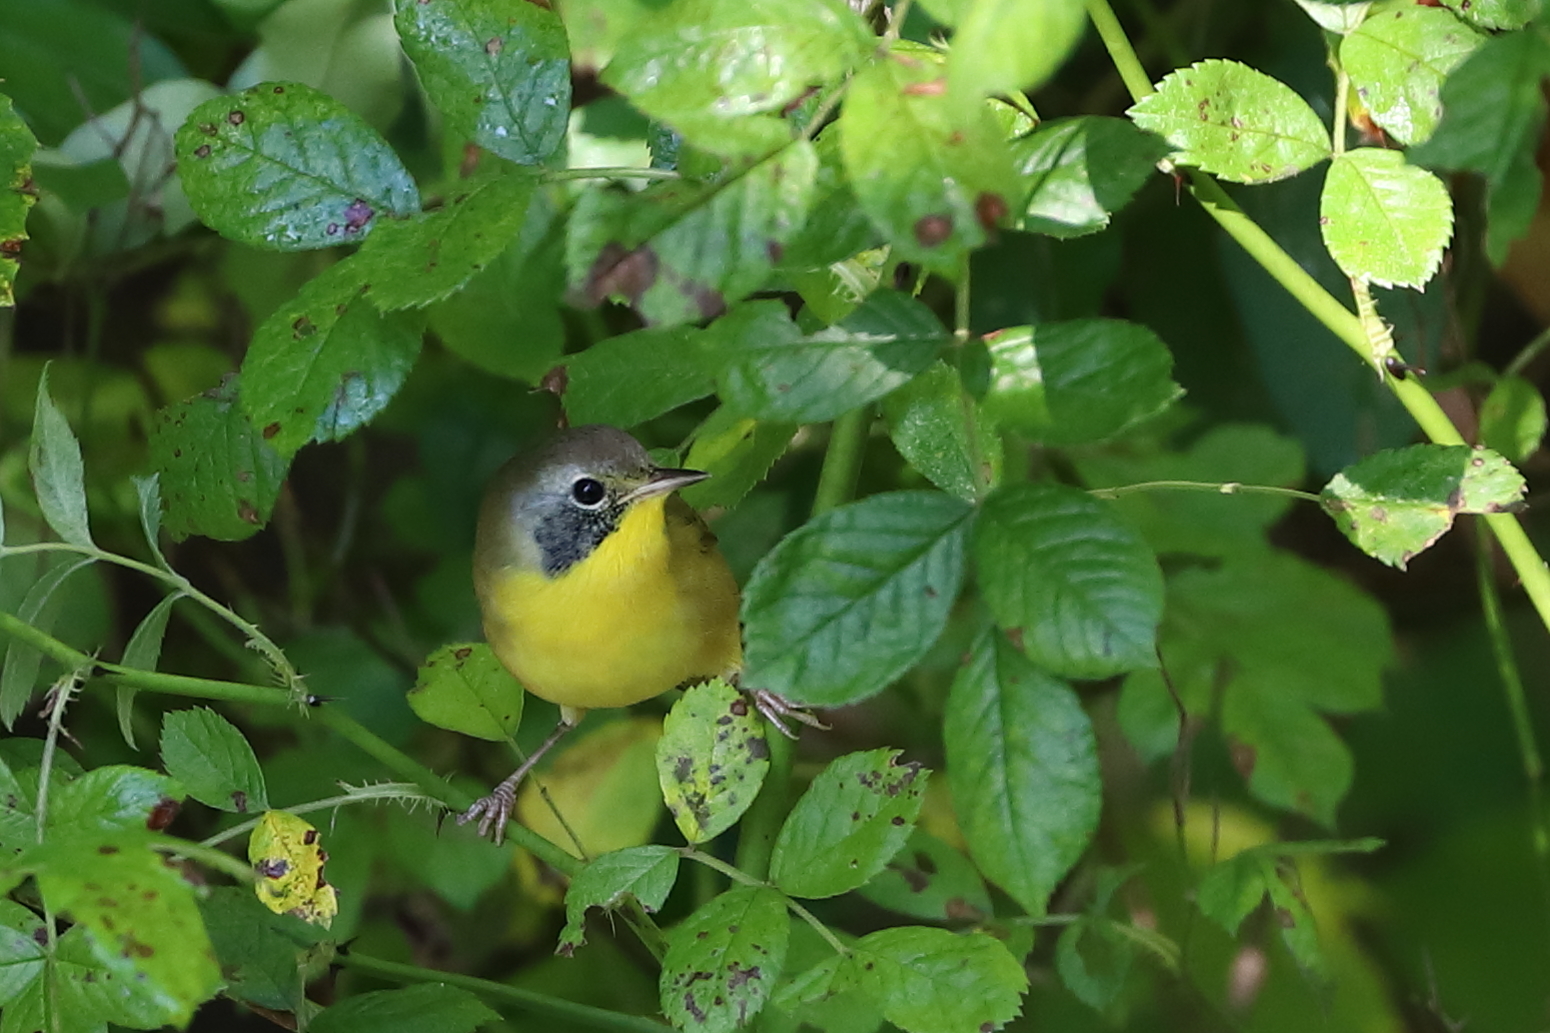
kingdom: Animalia
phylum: Chordata
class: Aves
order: Passeriformes
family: Parulidae
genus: Geothlypis
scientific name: Geothlypis trichas
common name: Common yellowthroat
